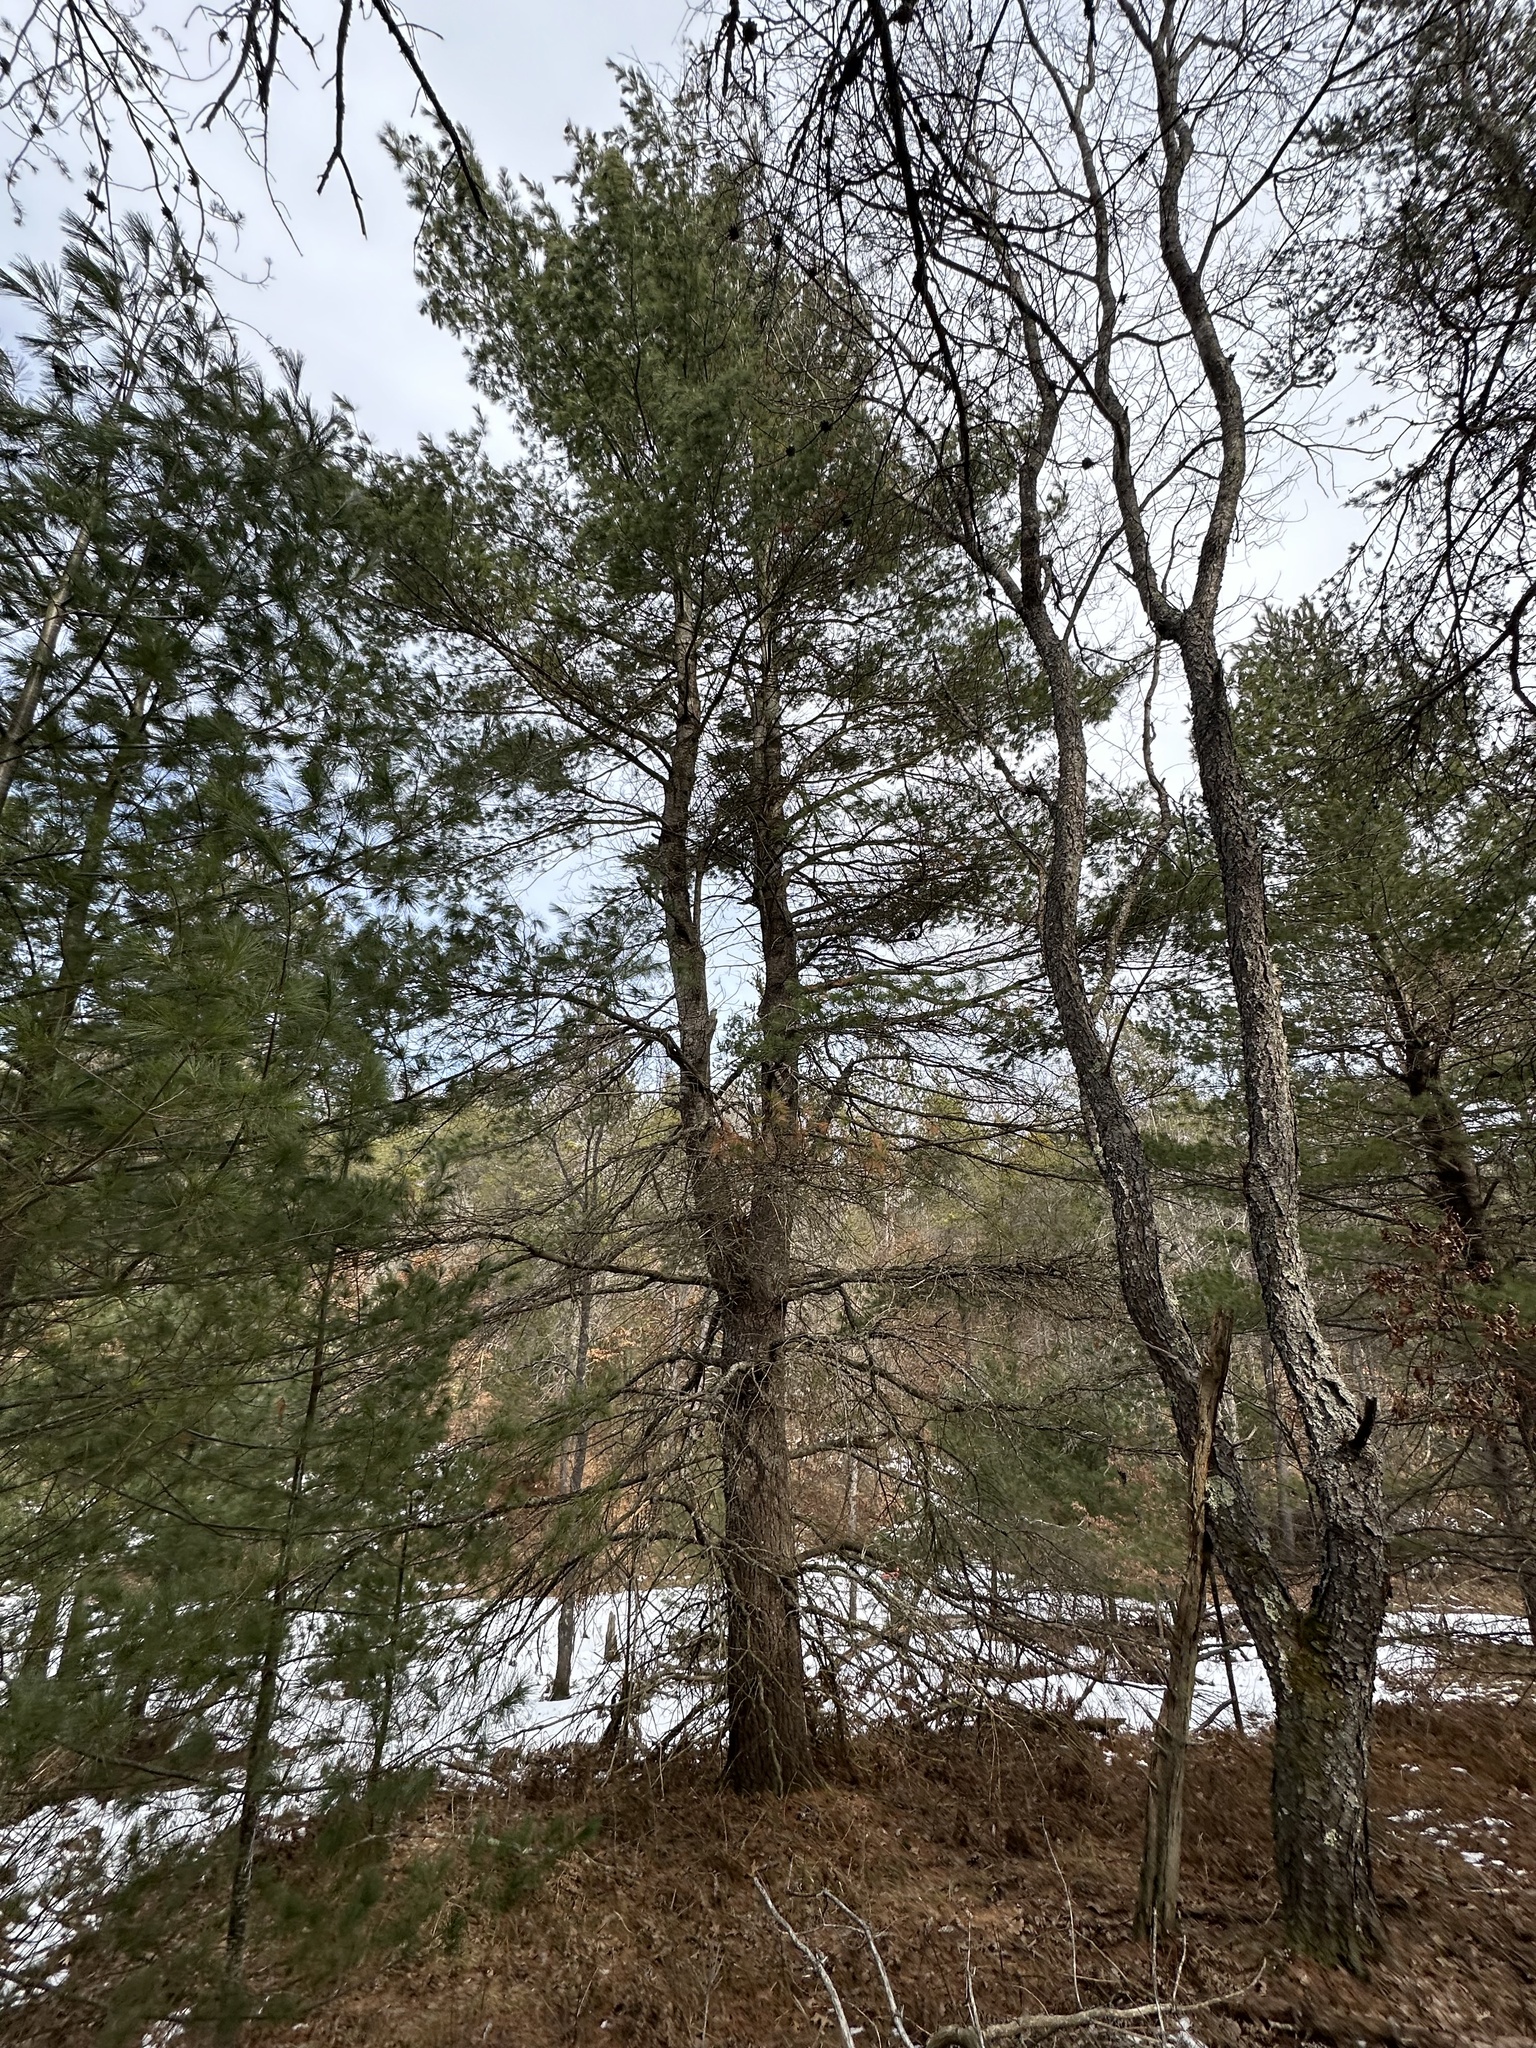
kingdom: Plantae
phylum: Tracheophyta
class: Pinopsida
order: Pinales
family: Pinaceae
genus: Pinus
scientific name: Pinus strobus
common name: Weymouth pine
